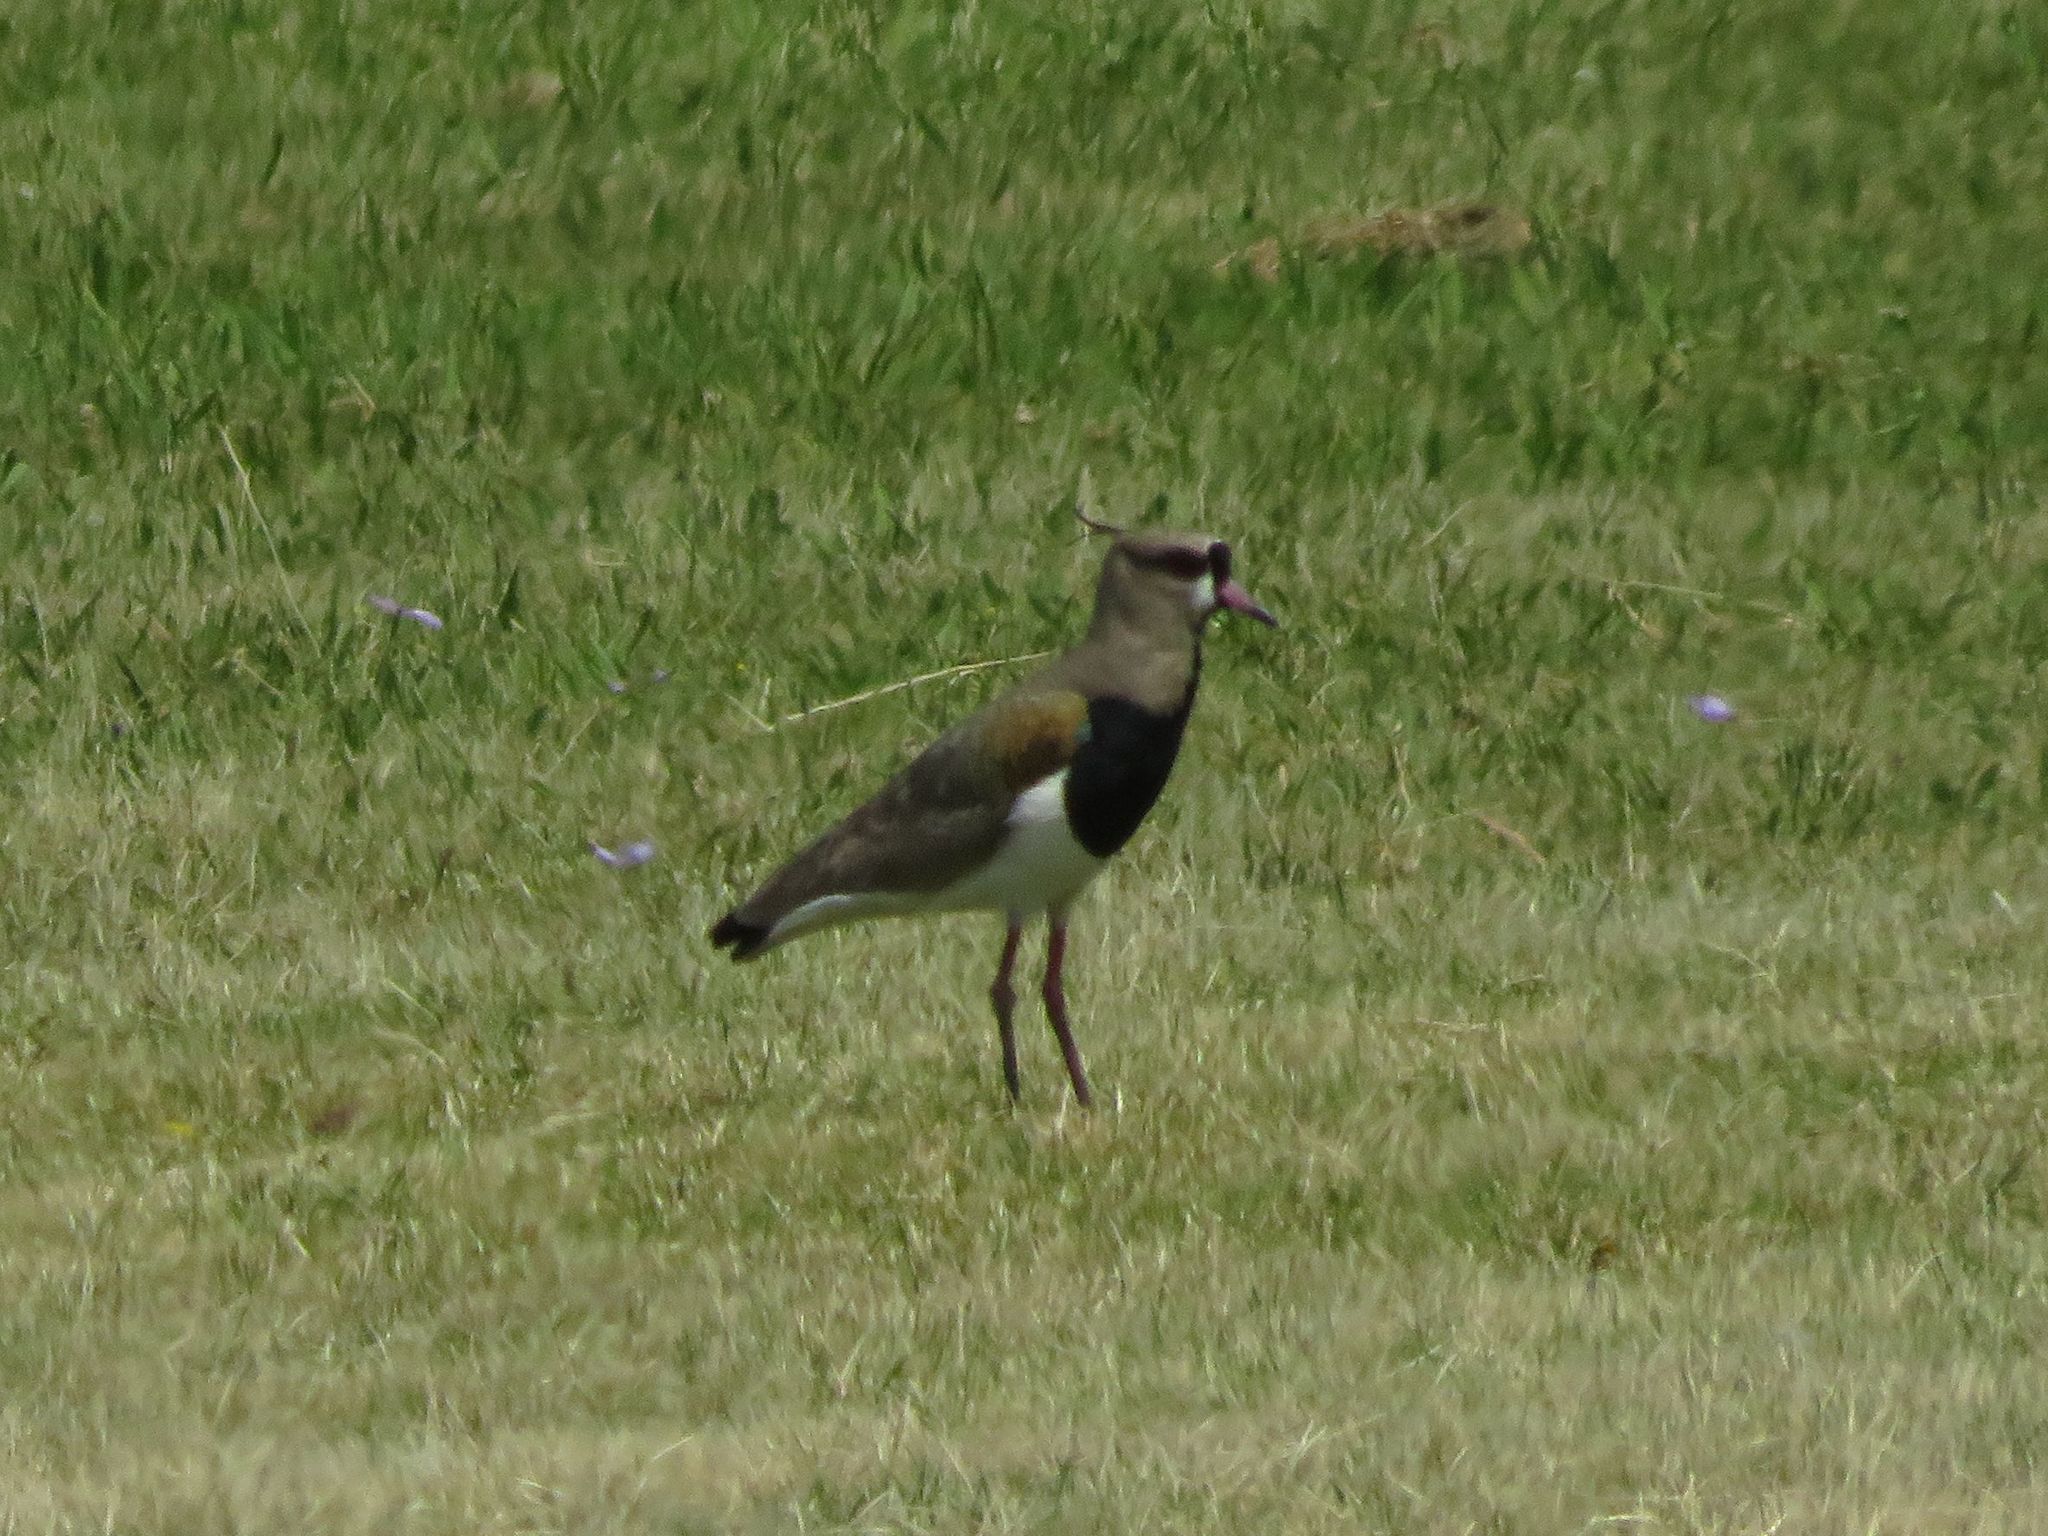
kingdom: Animalia
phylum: Chordata
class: Aves
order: Charadriiformes
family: Charadriidae
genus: Vanellus
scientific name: Vanellus chilensis
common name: Southern lapwing
